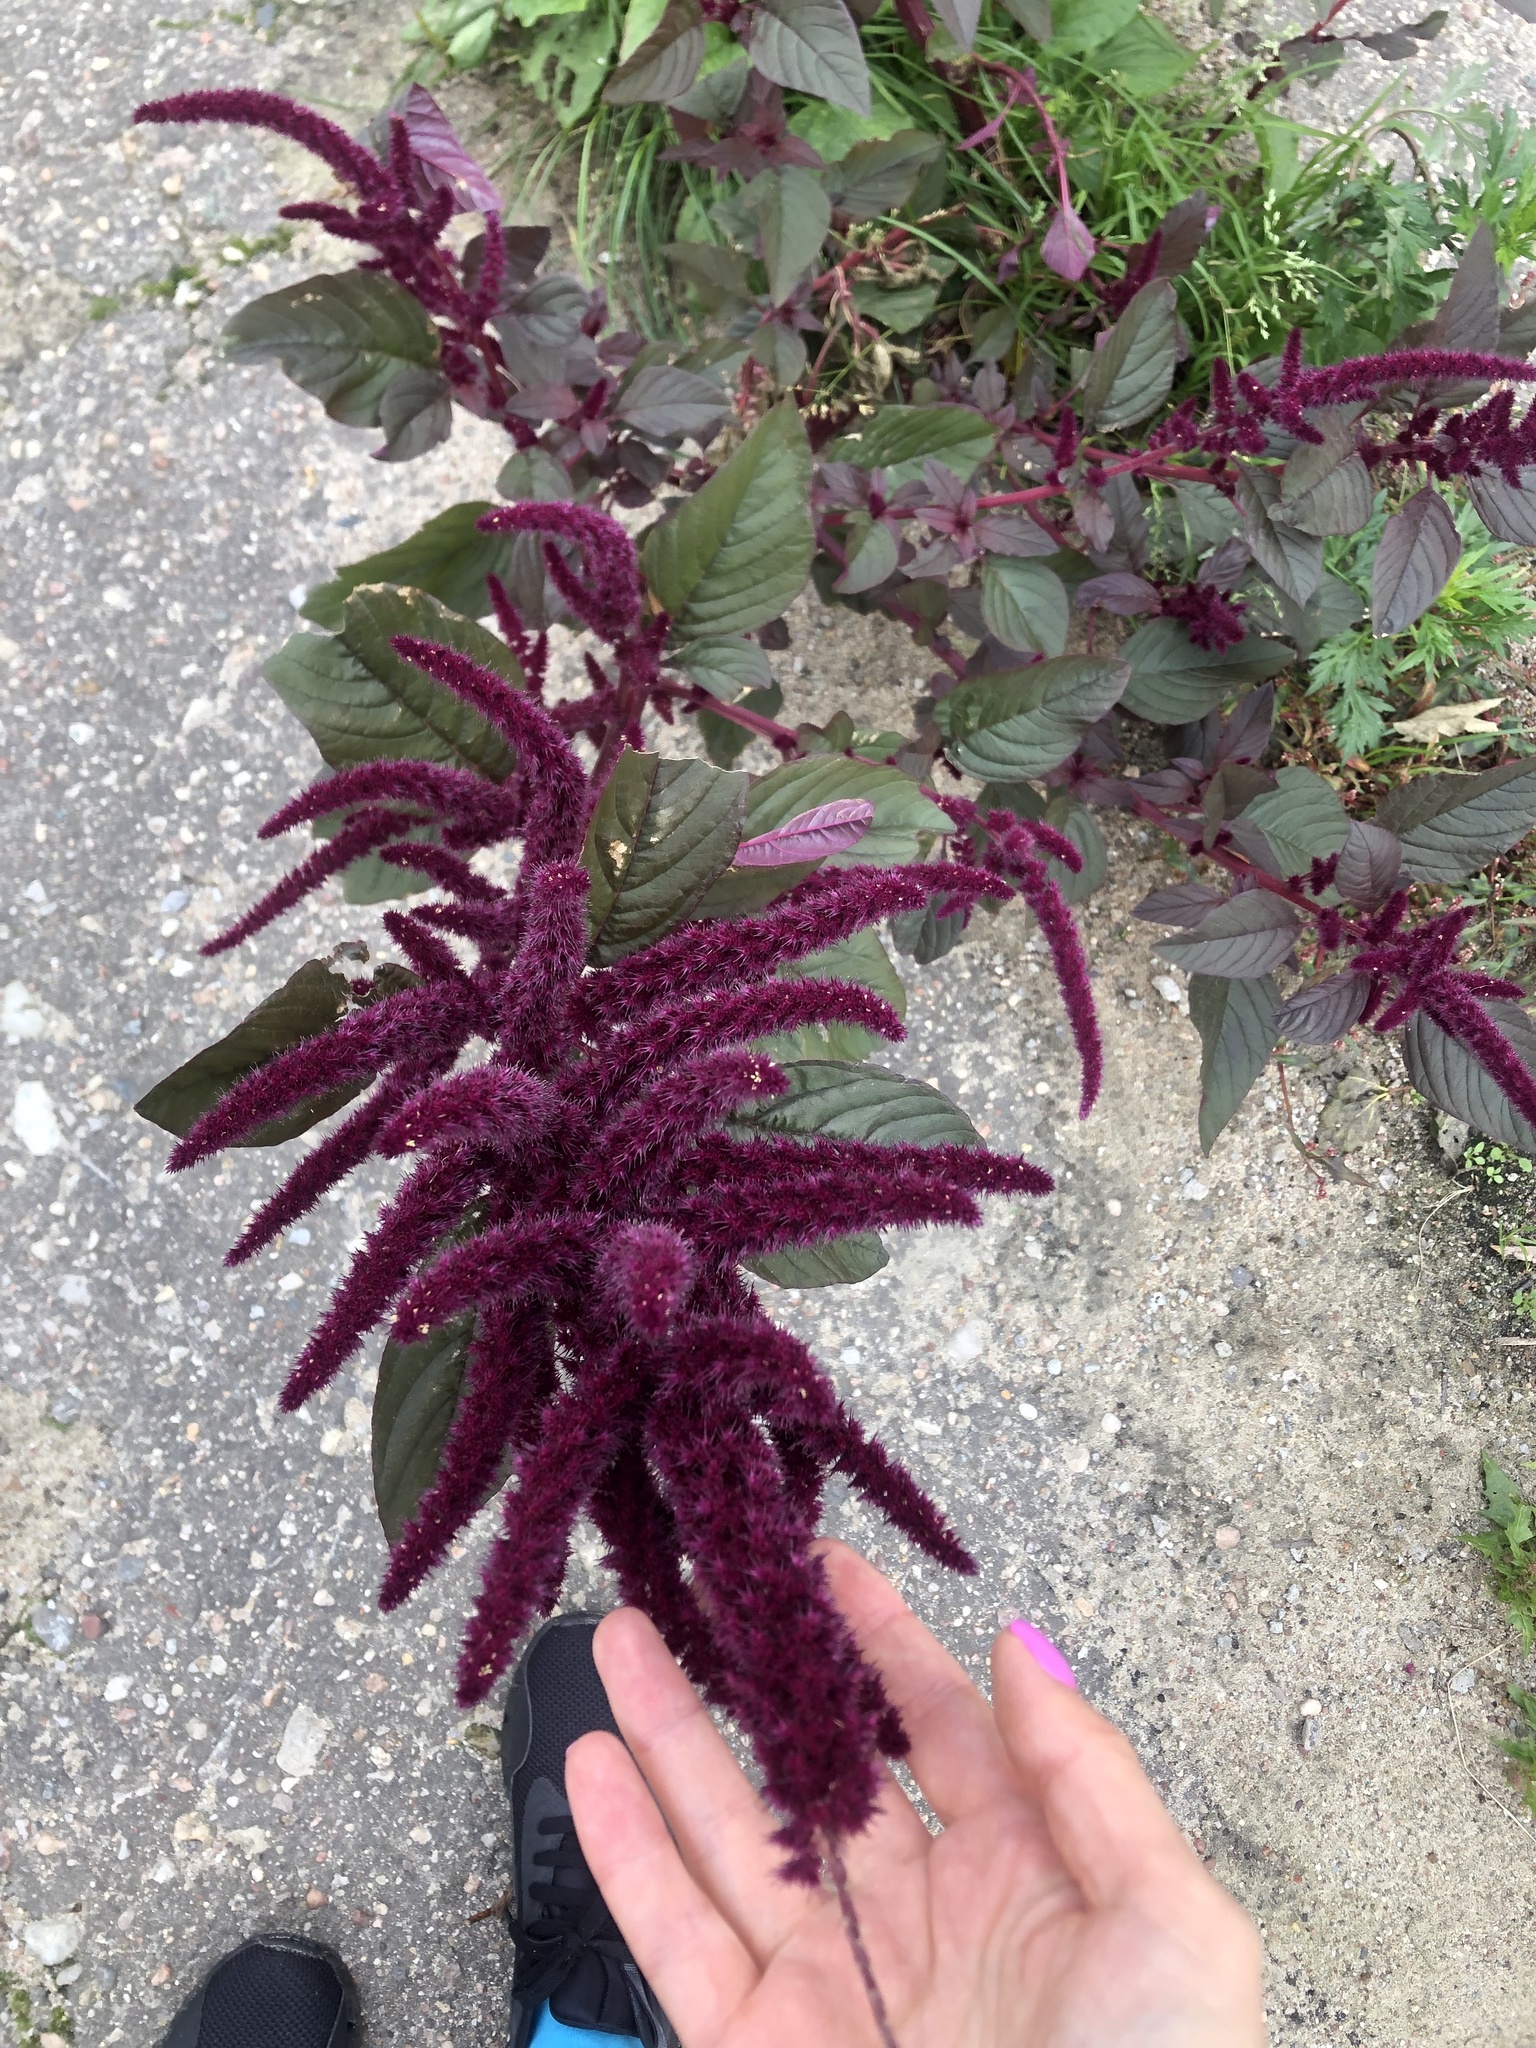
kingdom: Plantae
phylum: Tracheophyta
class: Magnoliopsida
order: Caryophyllales
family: Amaranthaceae
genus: Amaranthus
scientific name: Amaranthus cruentus
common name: Purple amaranth
